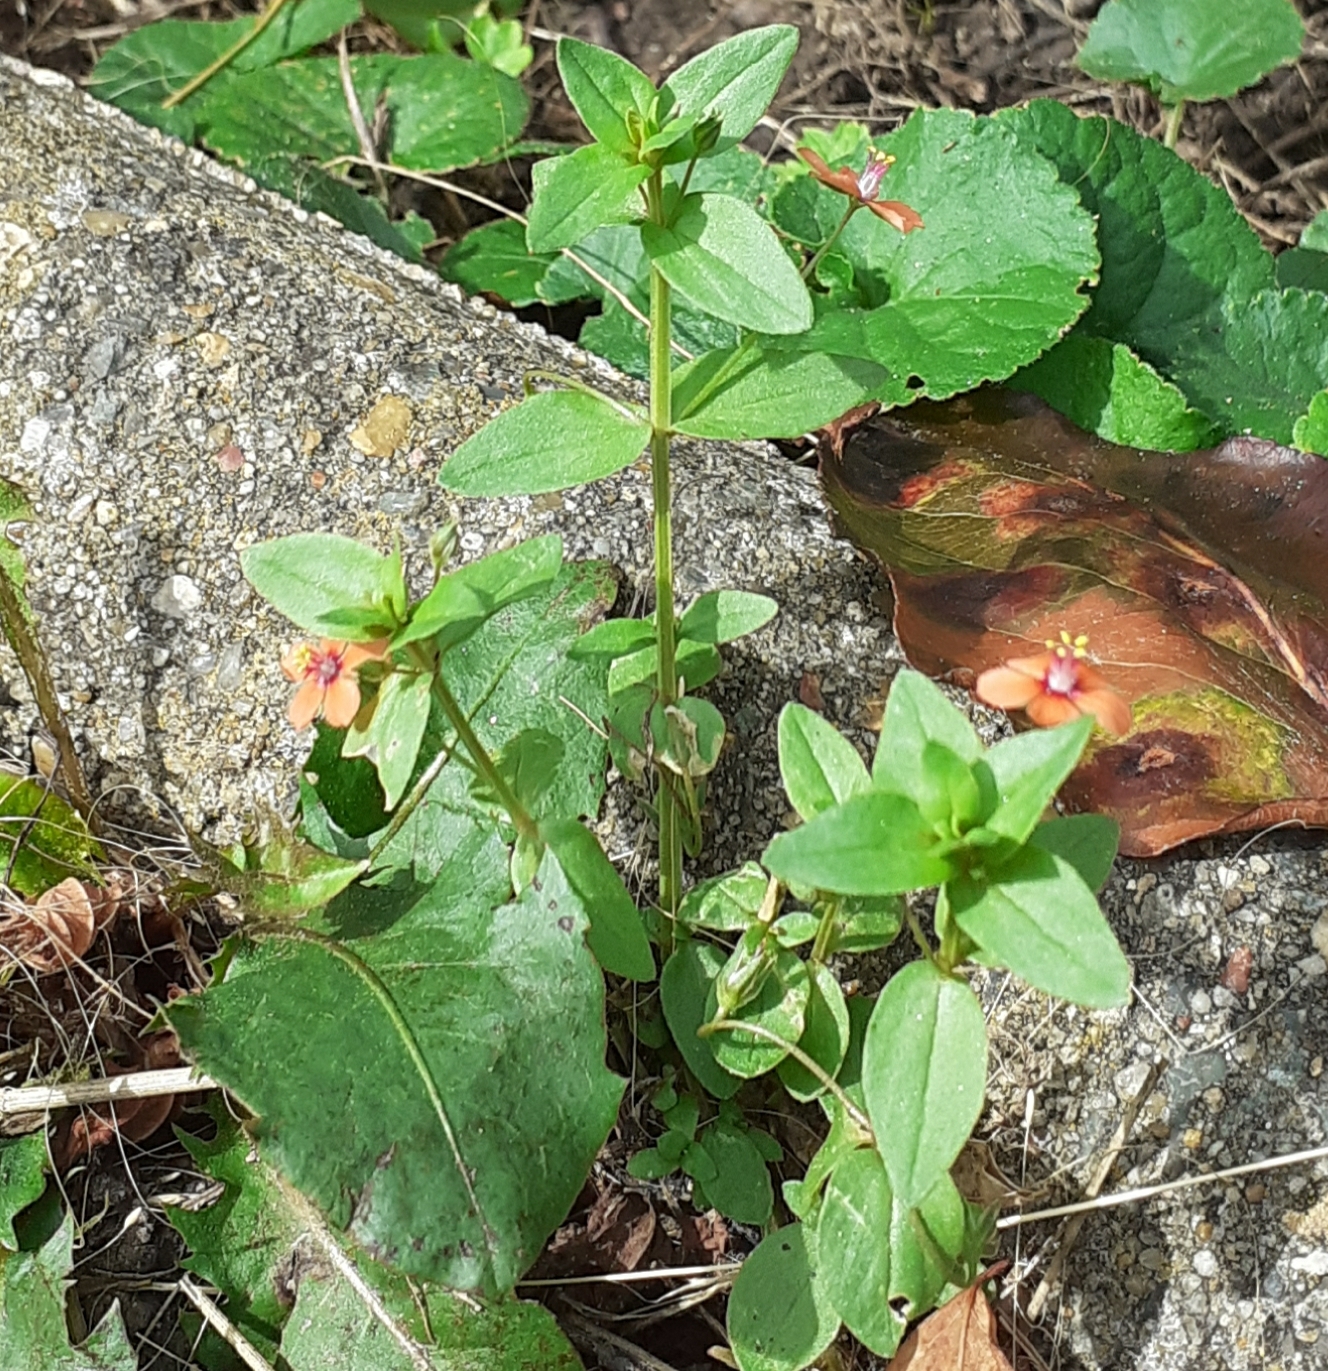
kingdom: Plantae
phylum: Tracheophyta
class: Magnoliopsida
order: Ericales
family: Primulaceae
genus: Lysimachia
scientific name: Lysimachia arvensis
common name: Scarlet pimpernel
